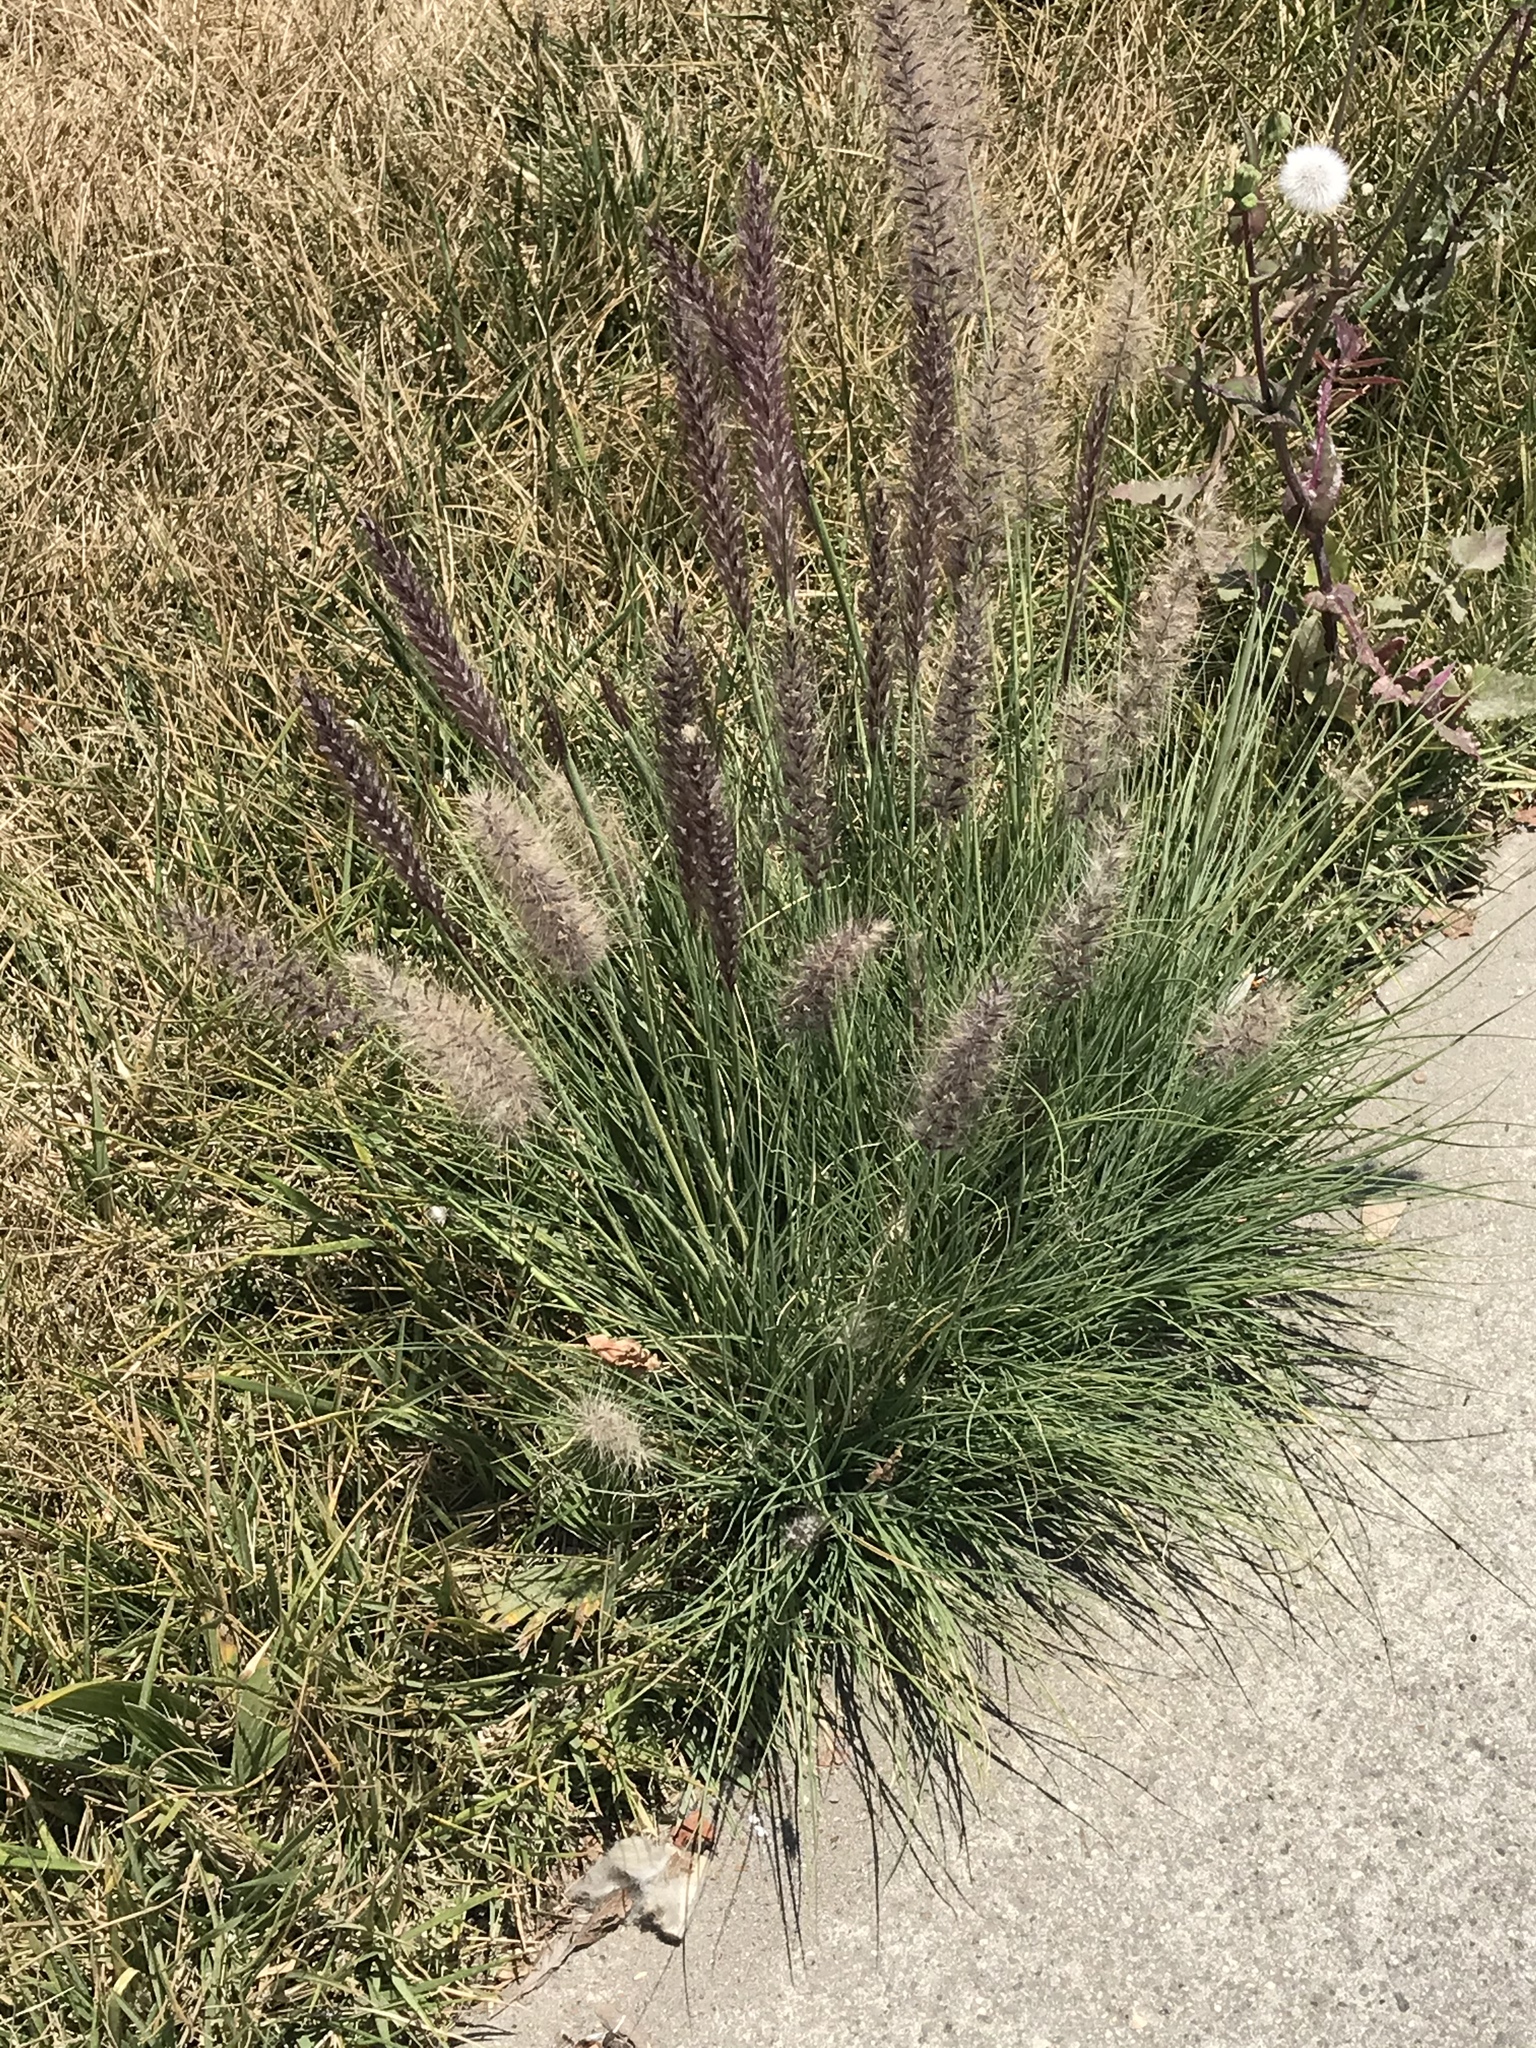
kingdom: Plantae
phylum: Tracheophyta
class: Liliopsida
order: Poales
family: Poaceae
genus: Cenchrus
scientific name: Cenchrus setaceus
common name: Crimson fountaingrass
